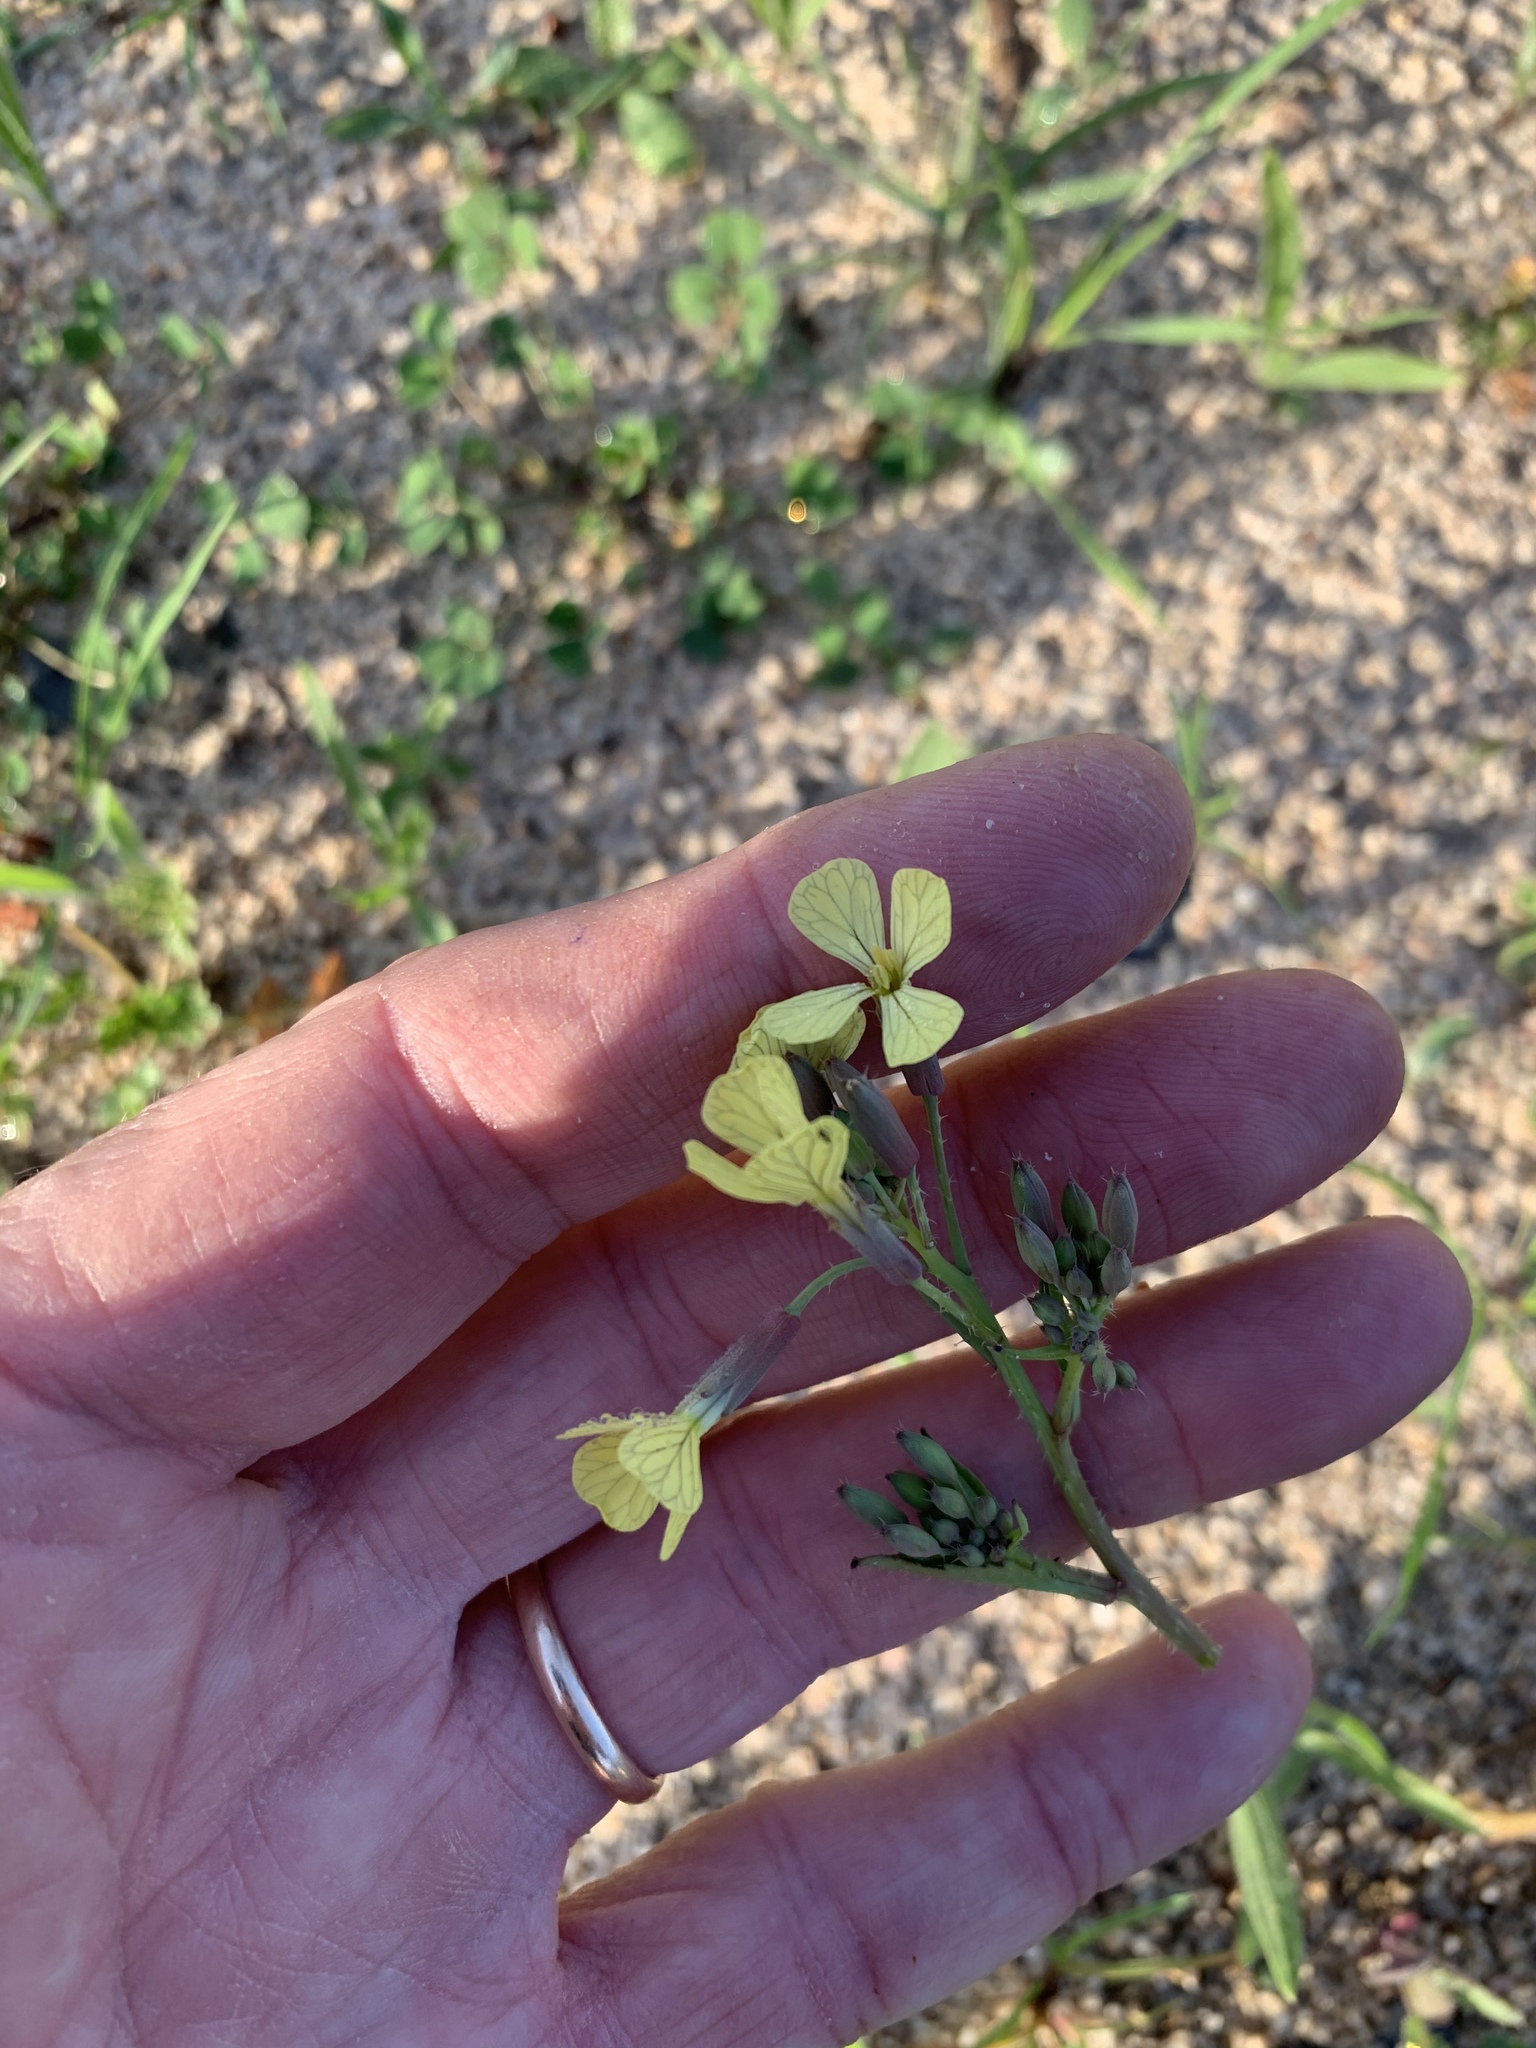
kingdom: Plantae
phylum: Tracheophyta
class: Magnoliopsida
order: Brassicales
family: Brassicaceae
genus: Raphanus
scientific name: Raphanus raphanistrum
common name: Wild radish
